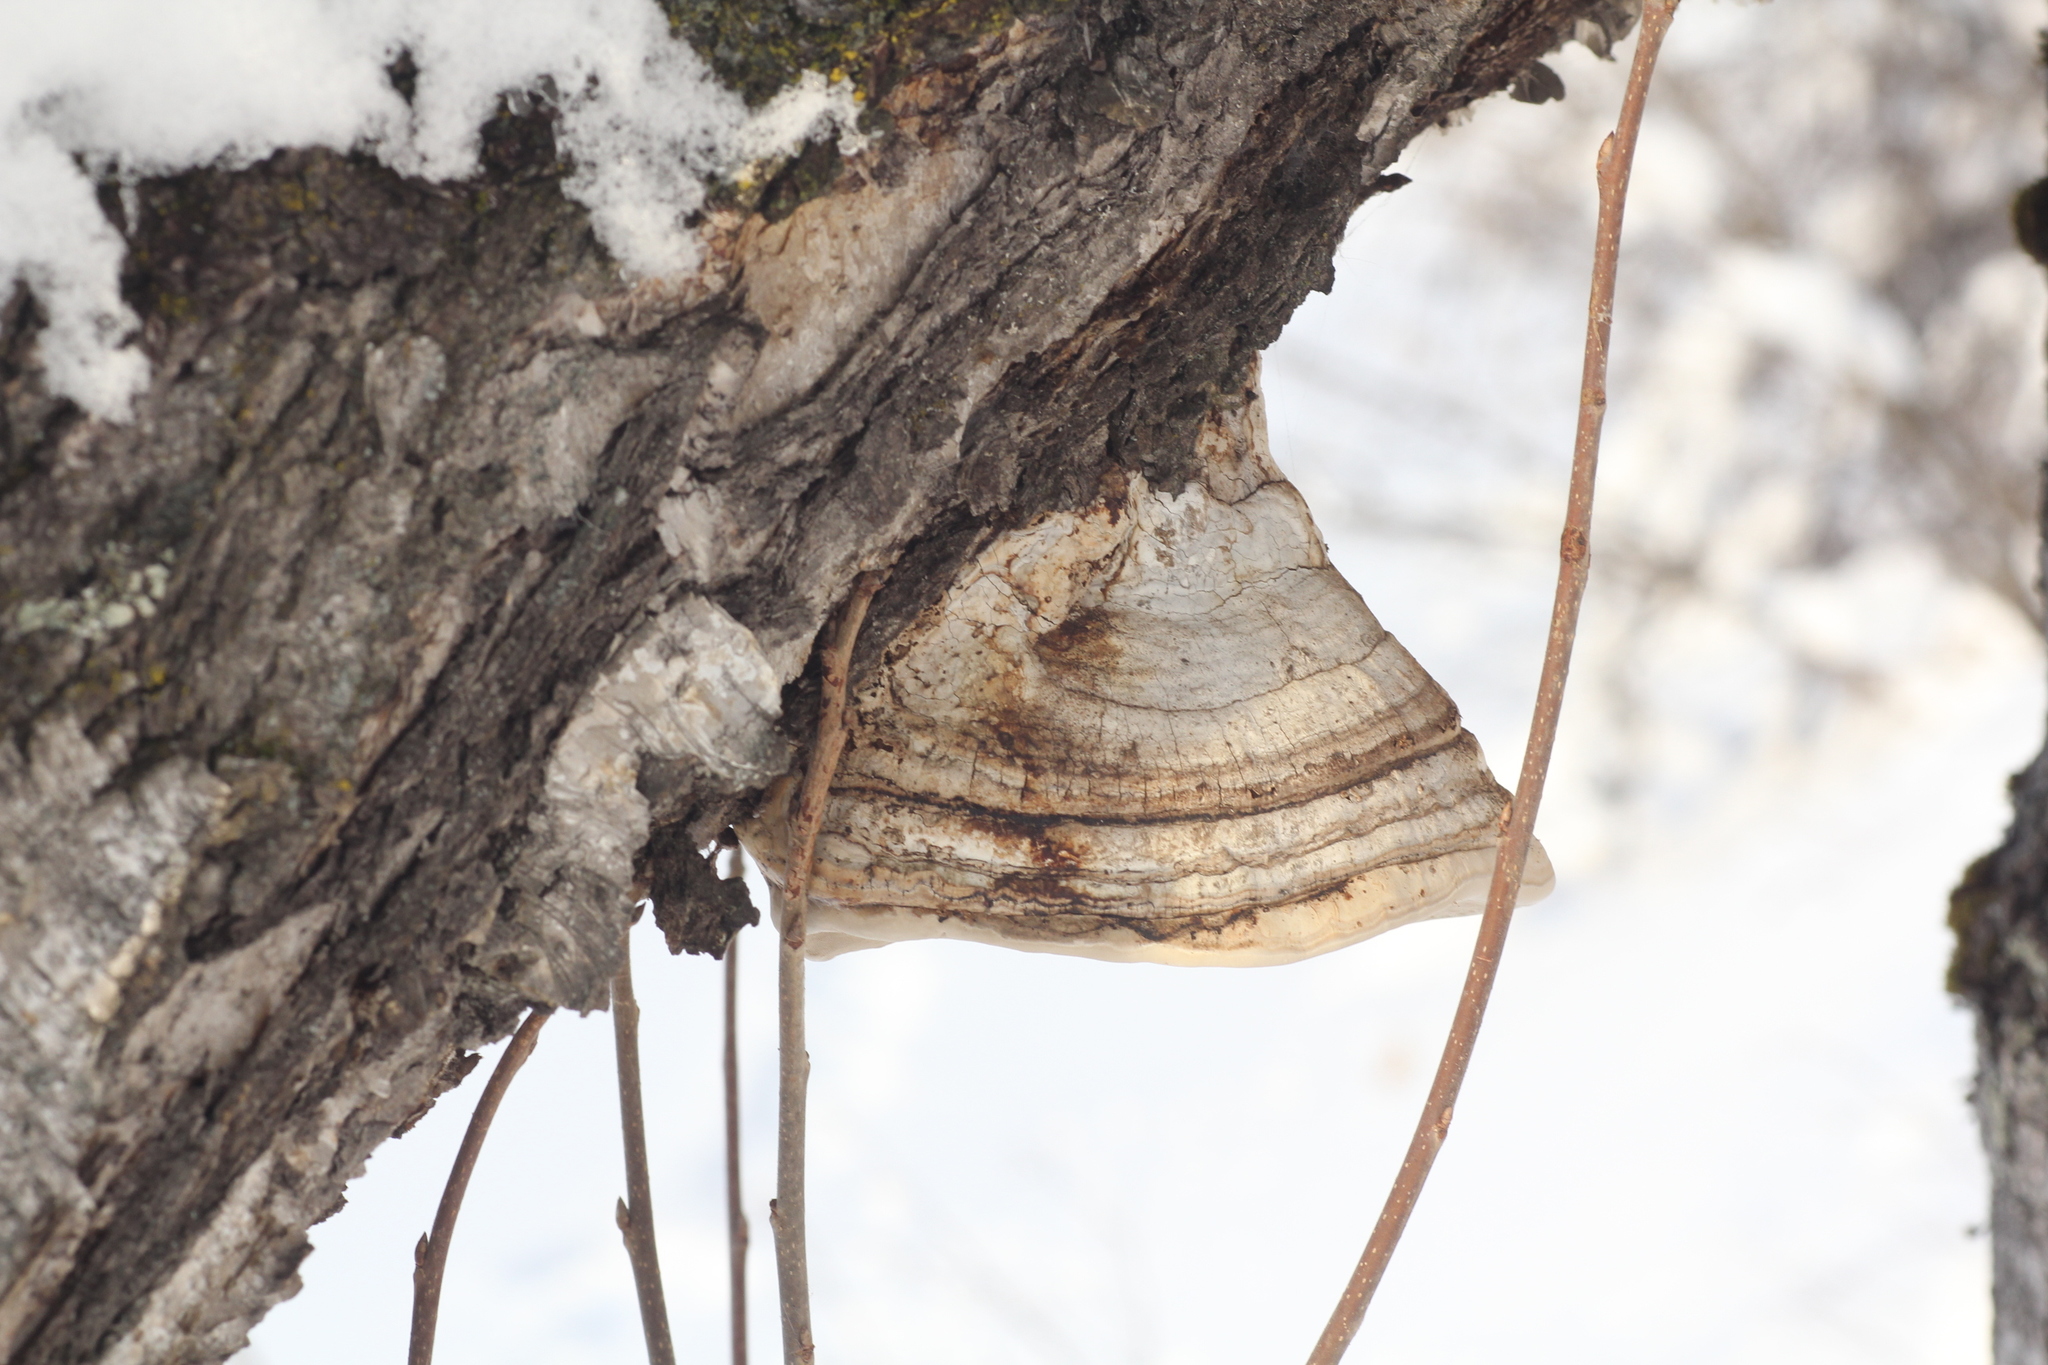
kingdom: Fungi
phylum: Basidiomycota
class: Agaricomycetes
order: Polyporales
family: Polyporaceae
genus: Fomes
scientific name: Fomes fomentarius
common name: Hoof fungus
